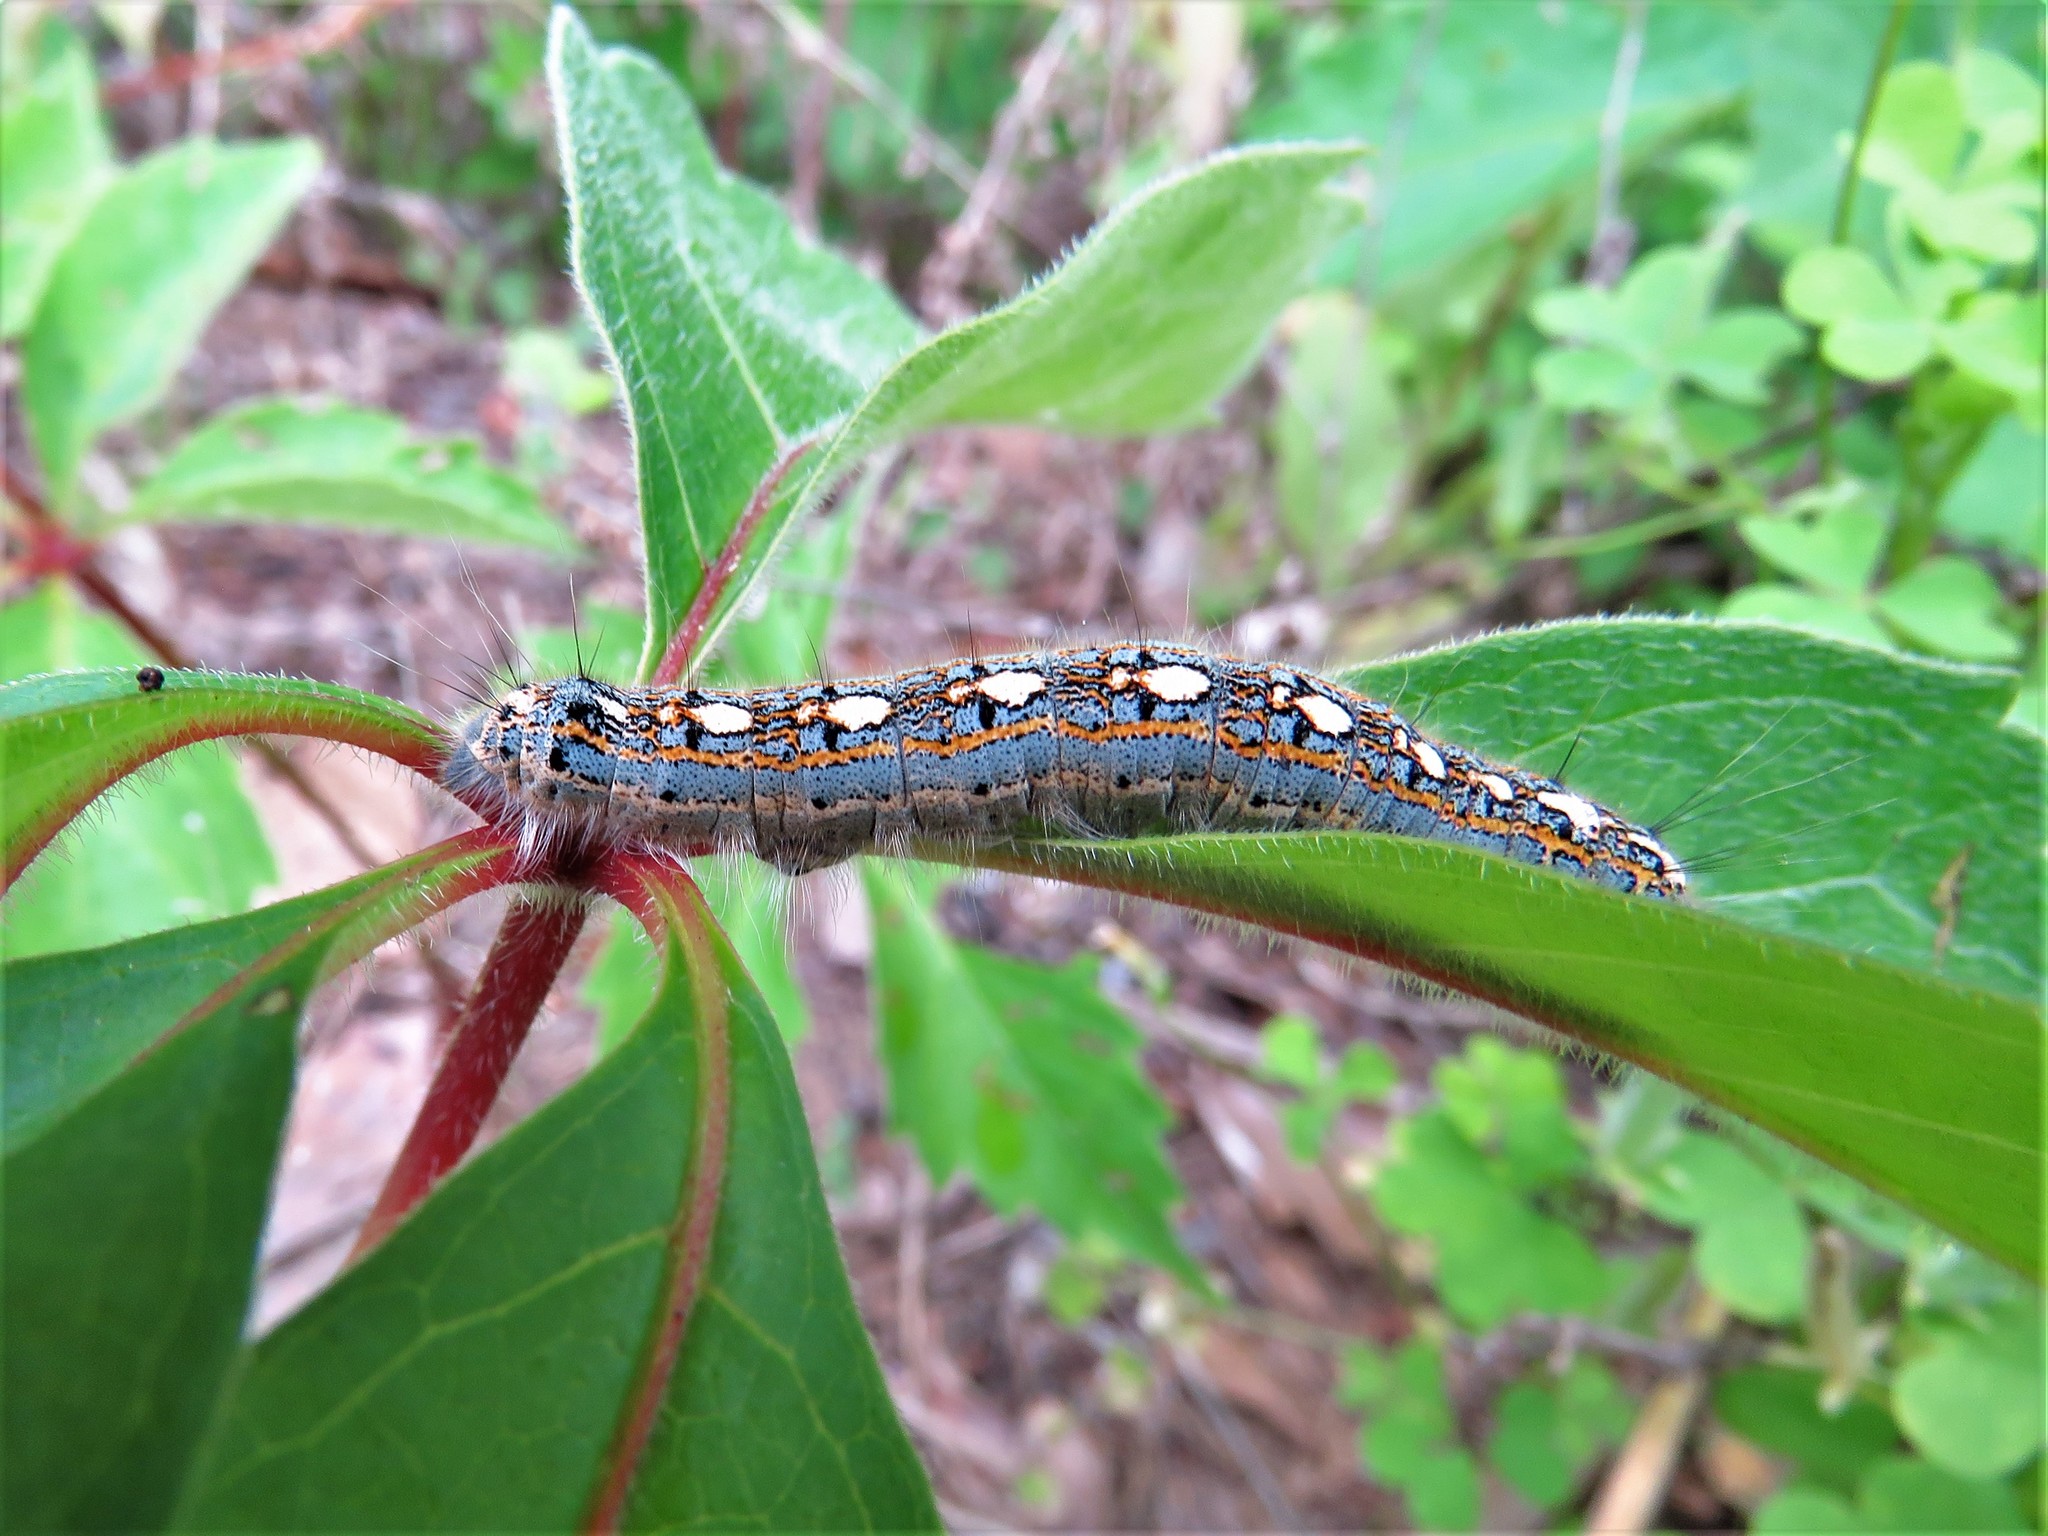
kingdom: Animalia
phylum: Arthropoda
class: Insecta
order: Lepidoptera
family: Lasiocampidae
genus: Malacosoma
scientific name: Malacosoma disstria
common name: Forest tent caterpillar
